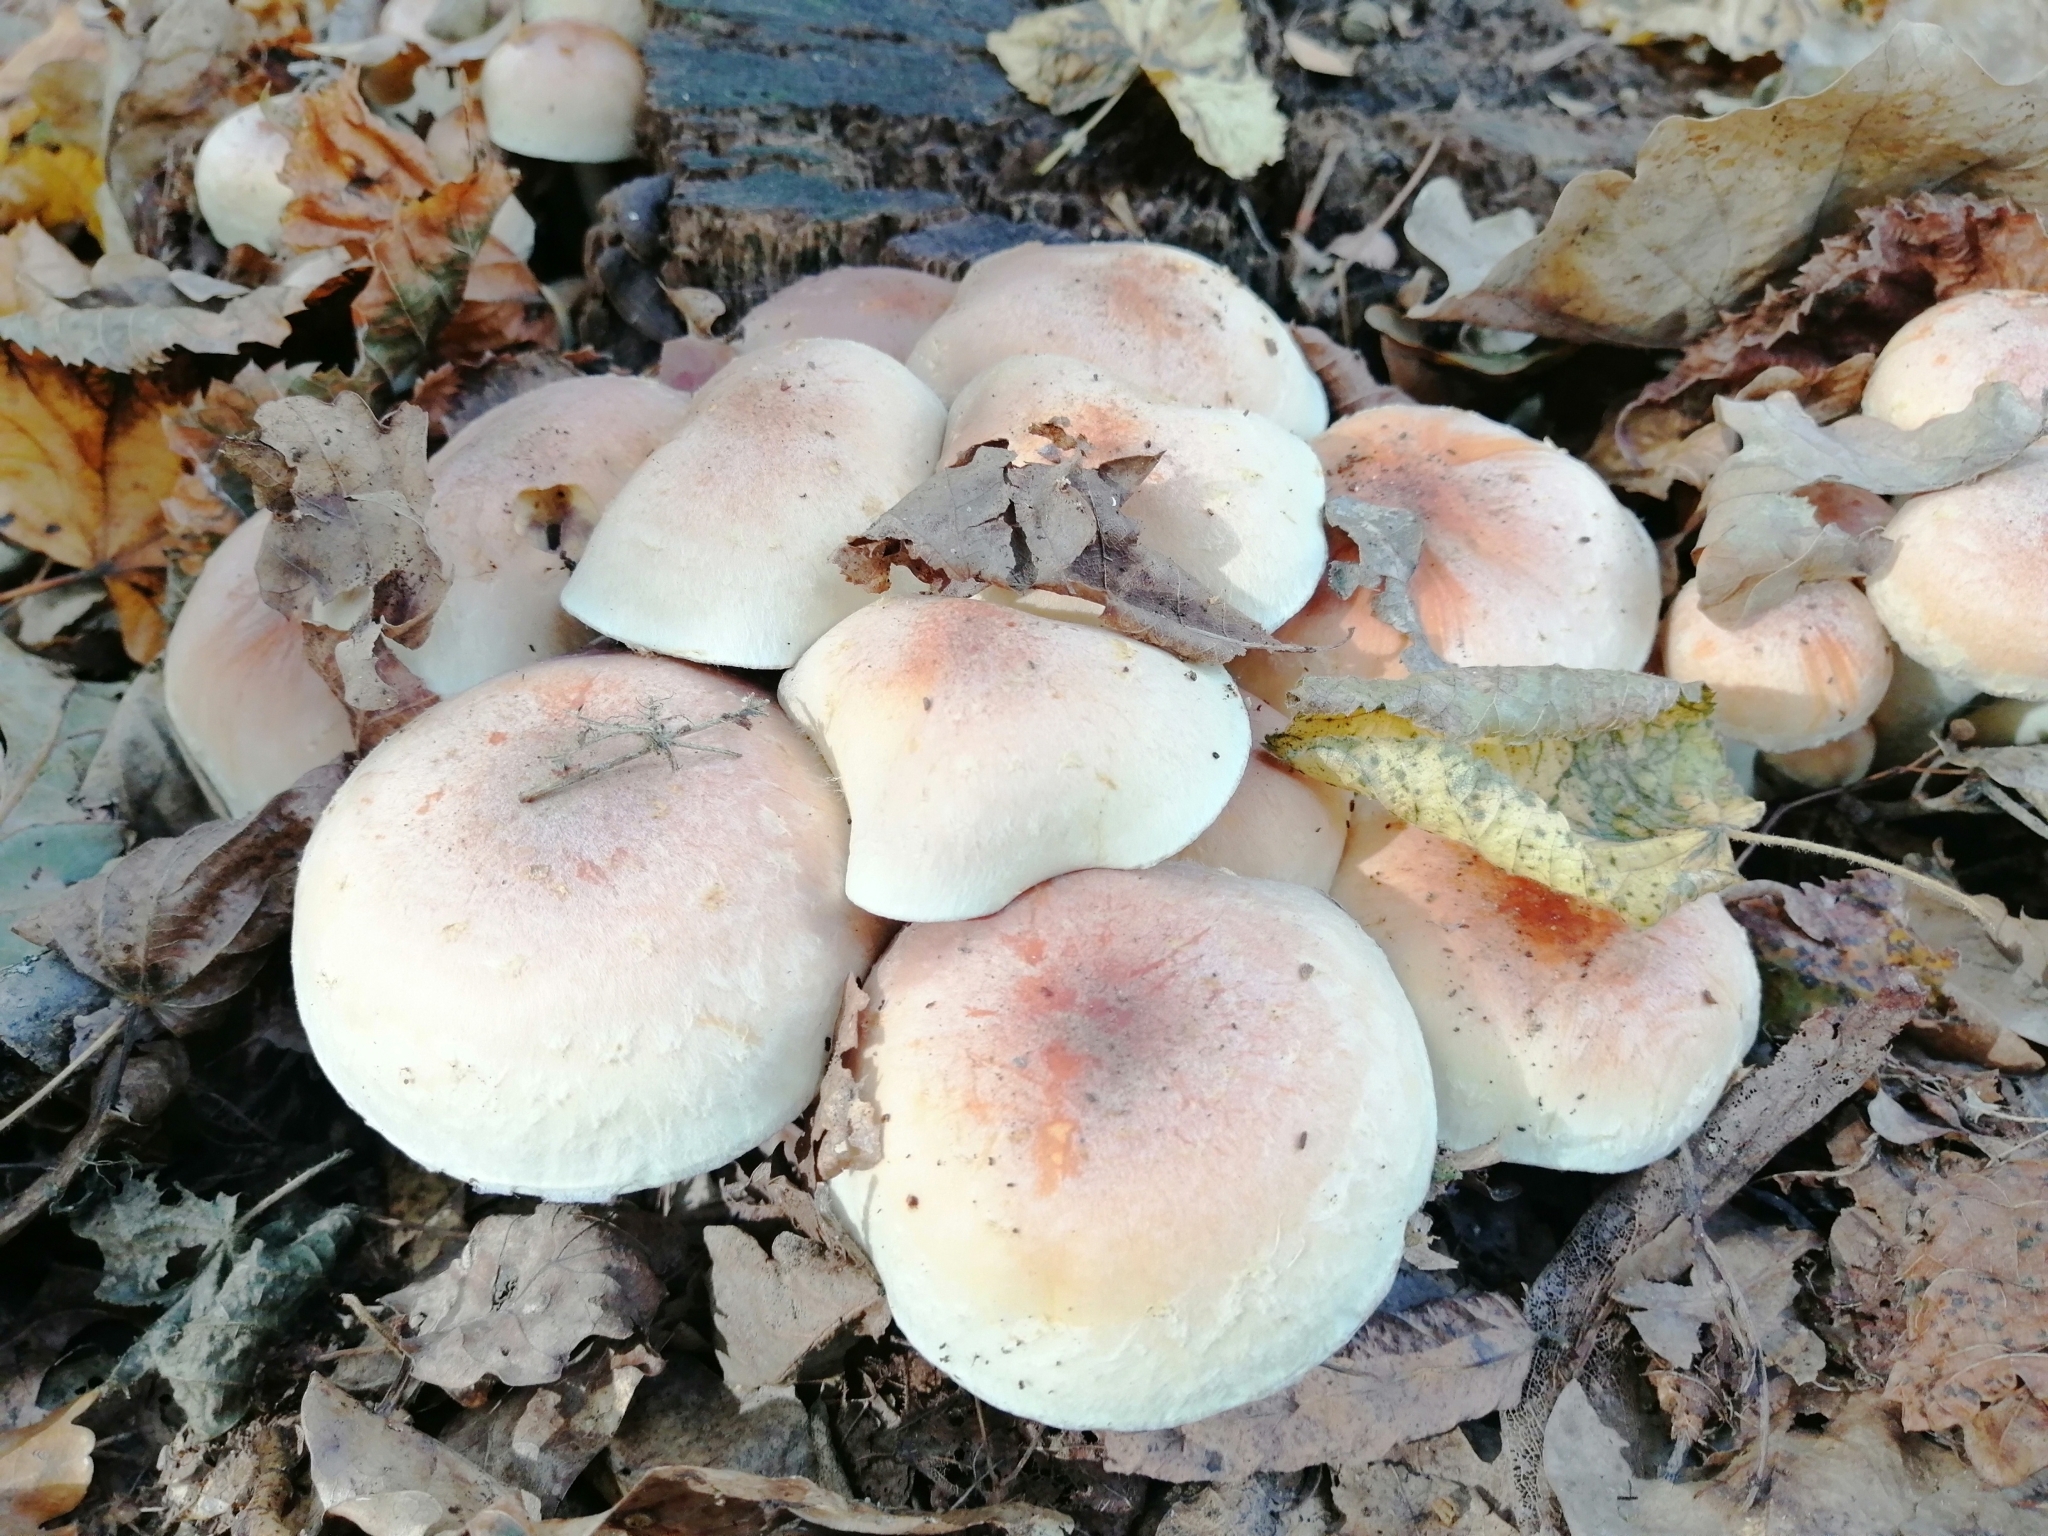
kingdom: Fungi
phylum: Basidiomycota
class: Agaricomycetes
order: Agaricales
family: Strophariaceae
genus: Hypholoma
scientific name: Hypholoma lateritium
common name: Brick caps
